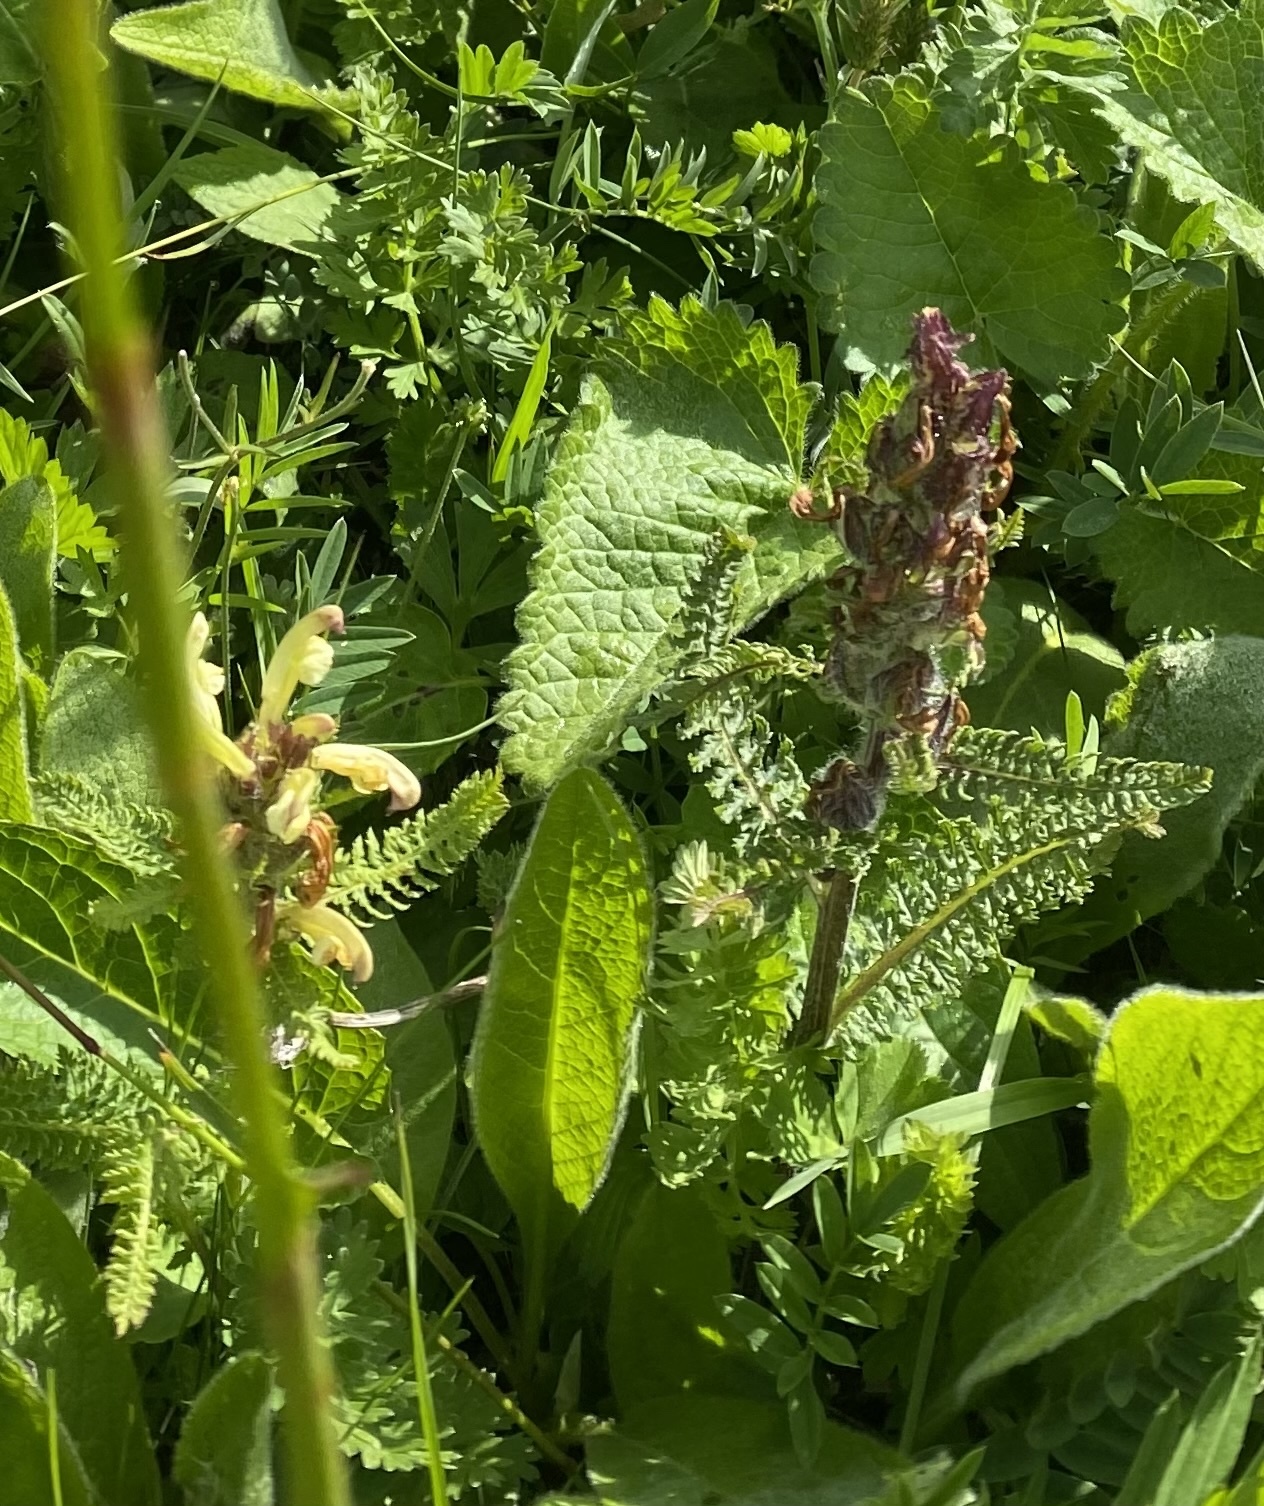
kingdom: Plantae
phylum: Tracheophyta
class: Magnoliopsida
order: Lamiales
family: Orobanchaceae
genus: Pedicularis
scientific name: Pedicularis chroorrhyncha
